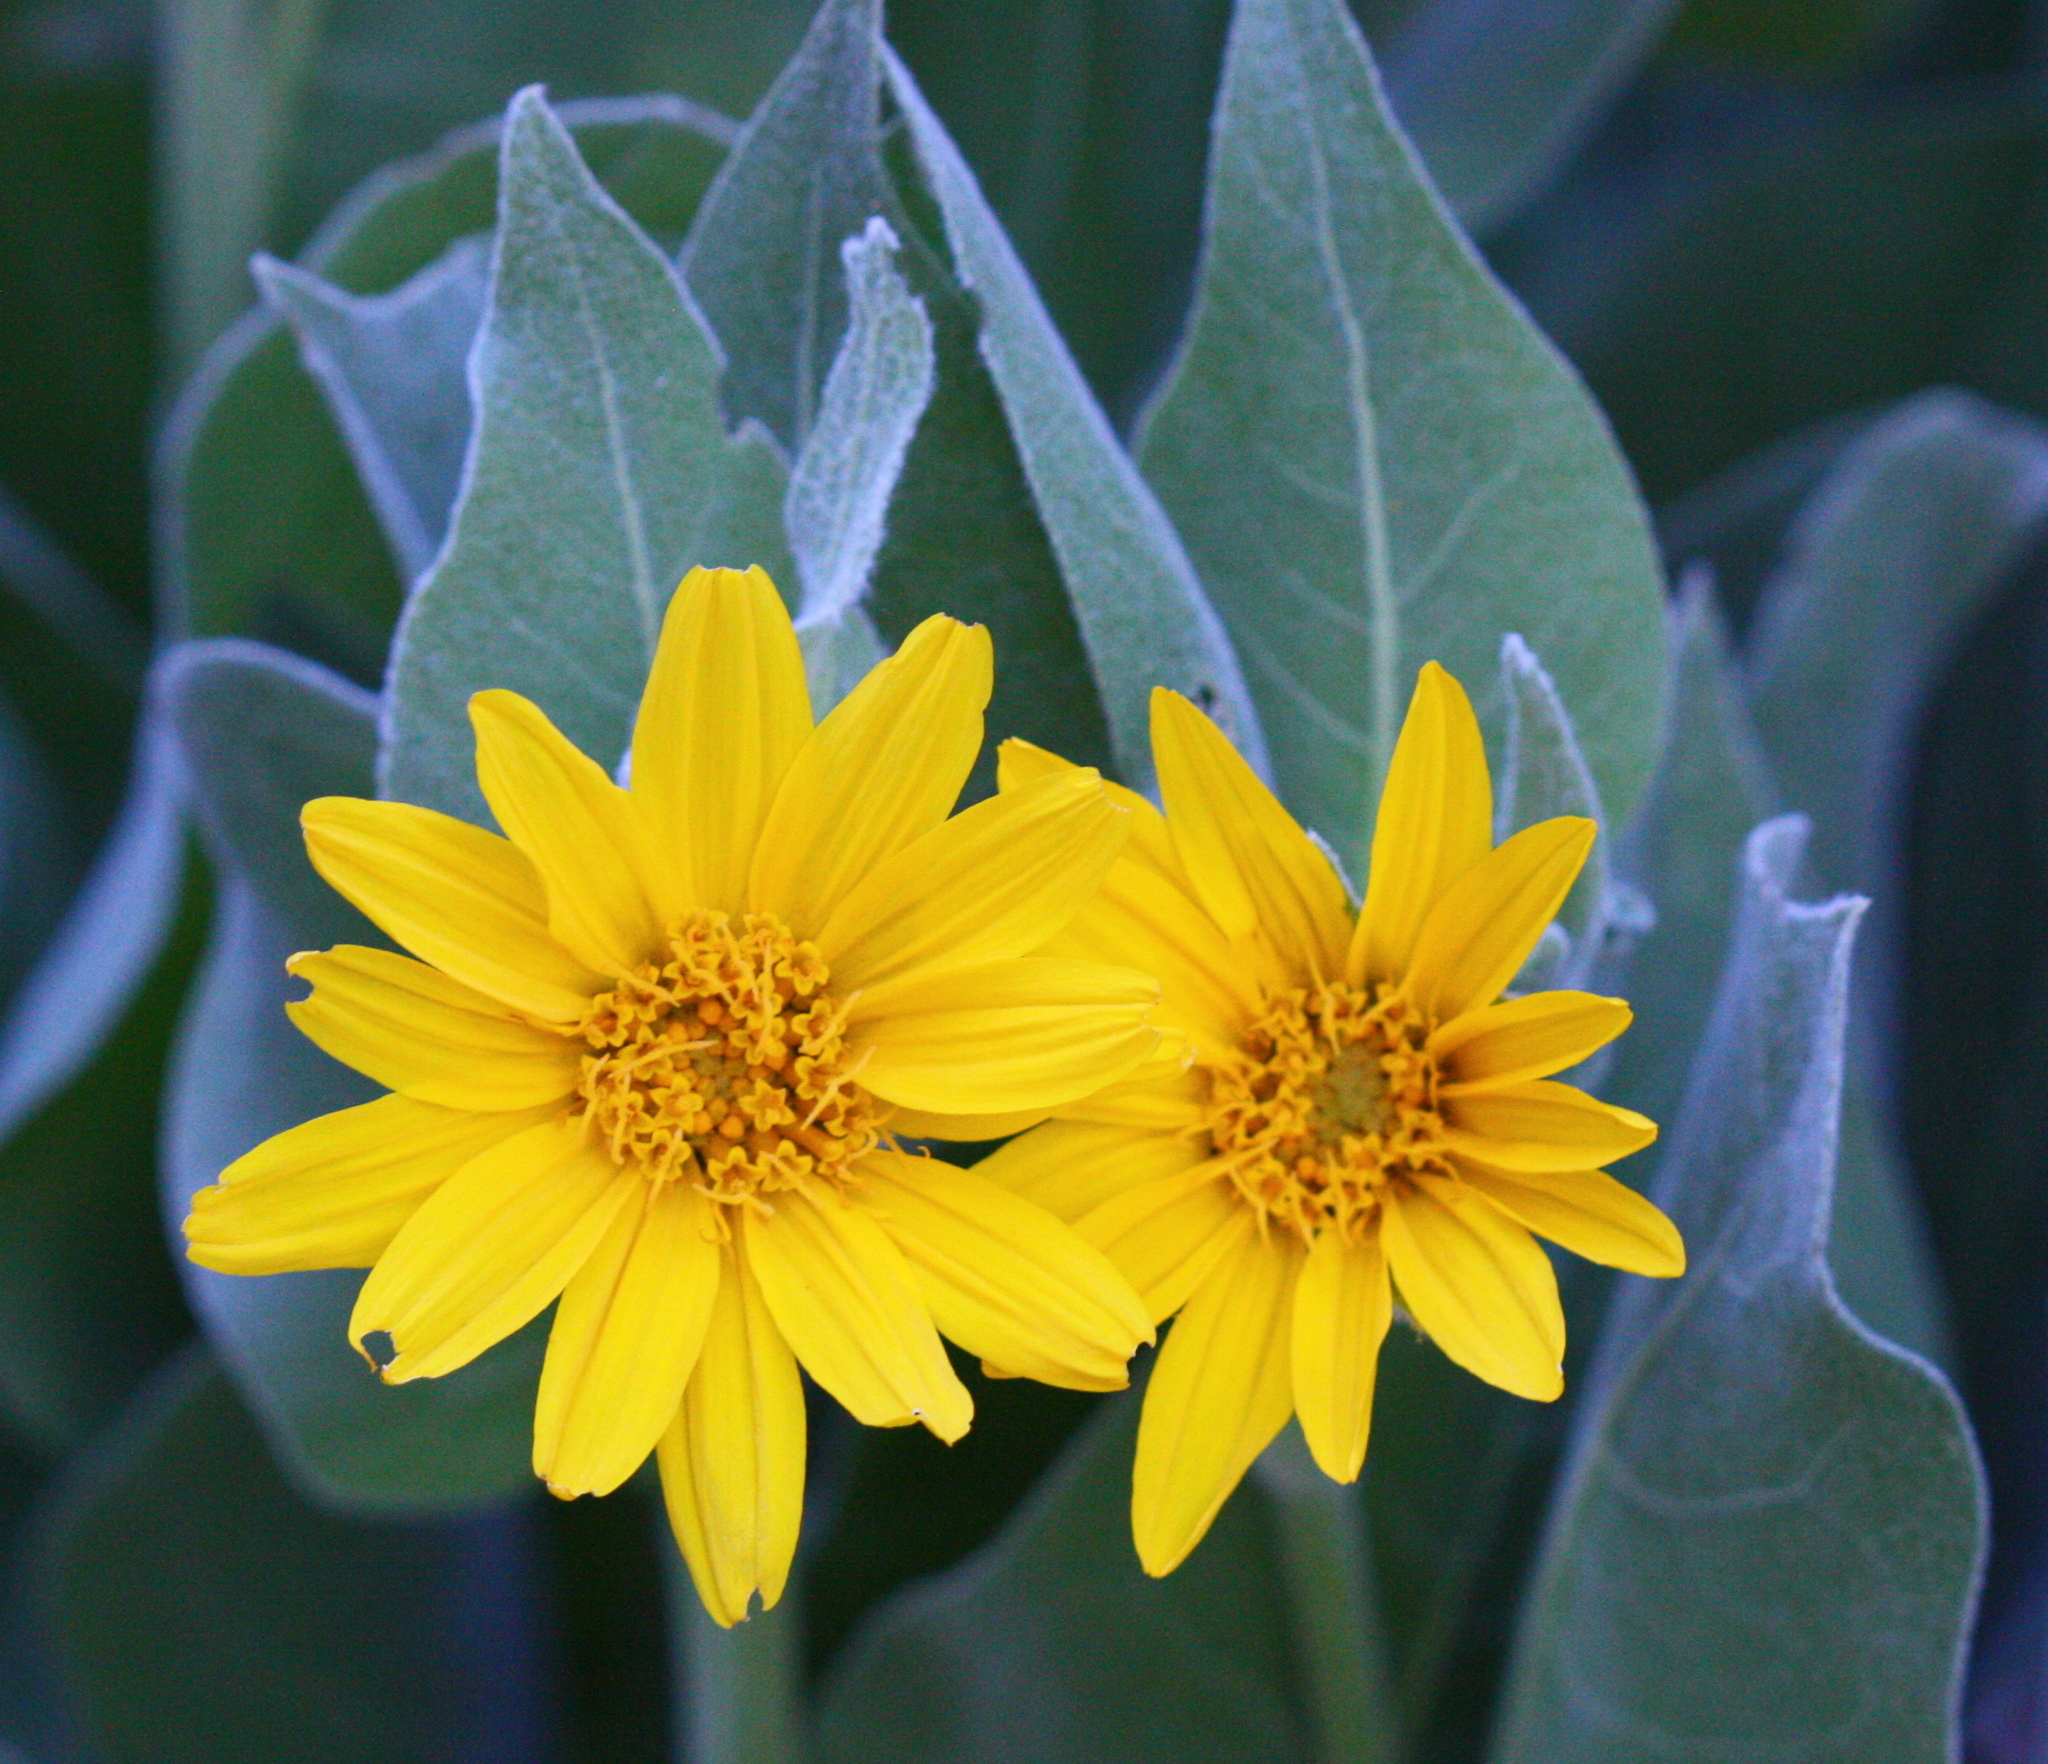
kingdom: Plantae
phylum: Tracheophyta
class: Magnoliopsida
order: Asterales
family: Asteraceae
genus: Wyethia
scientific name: Wyethia mollis
